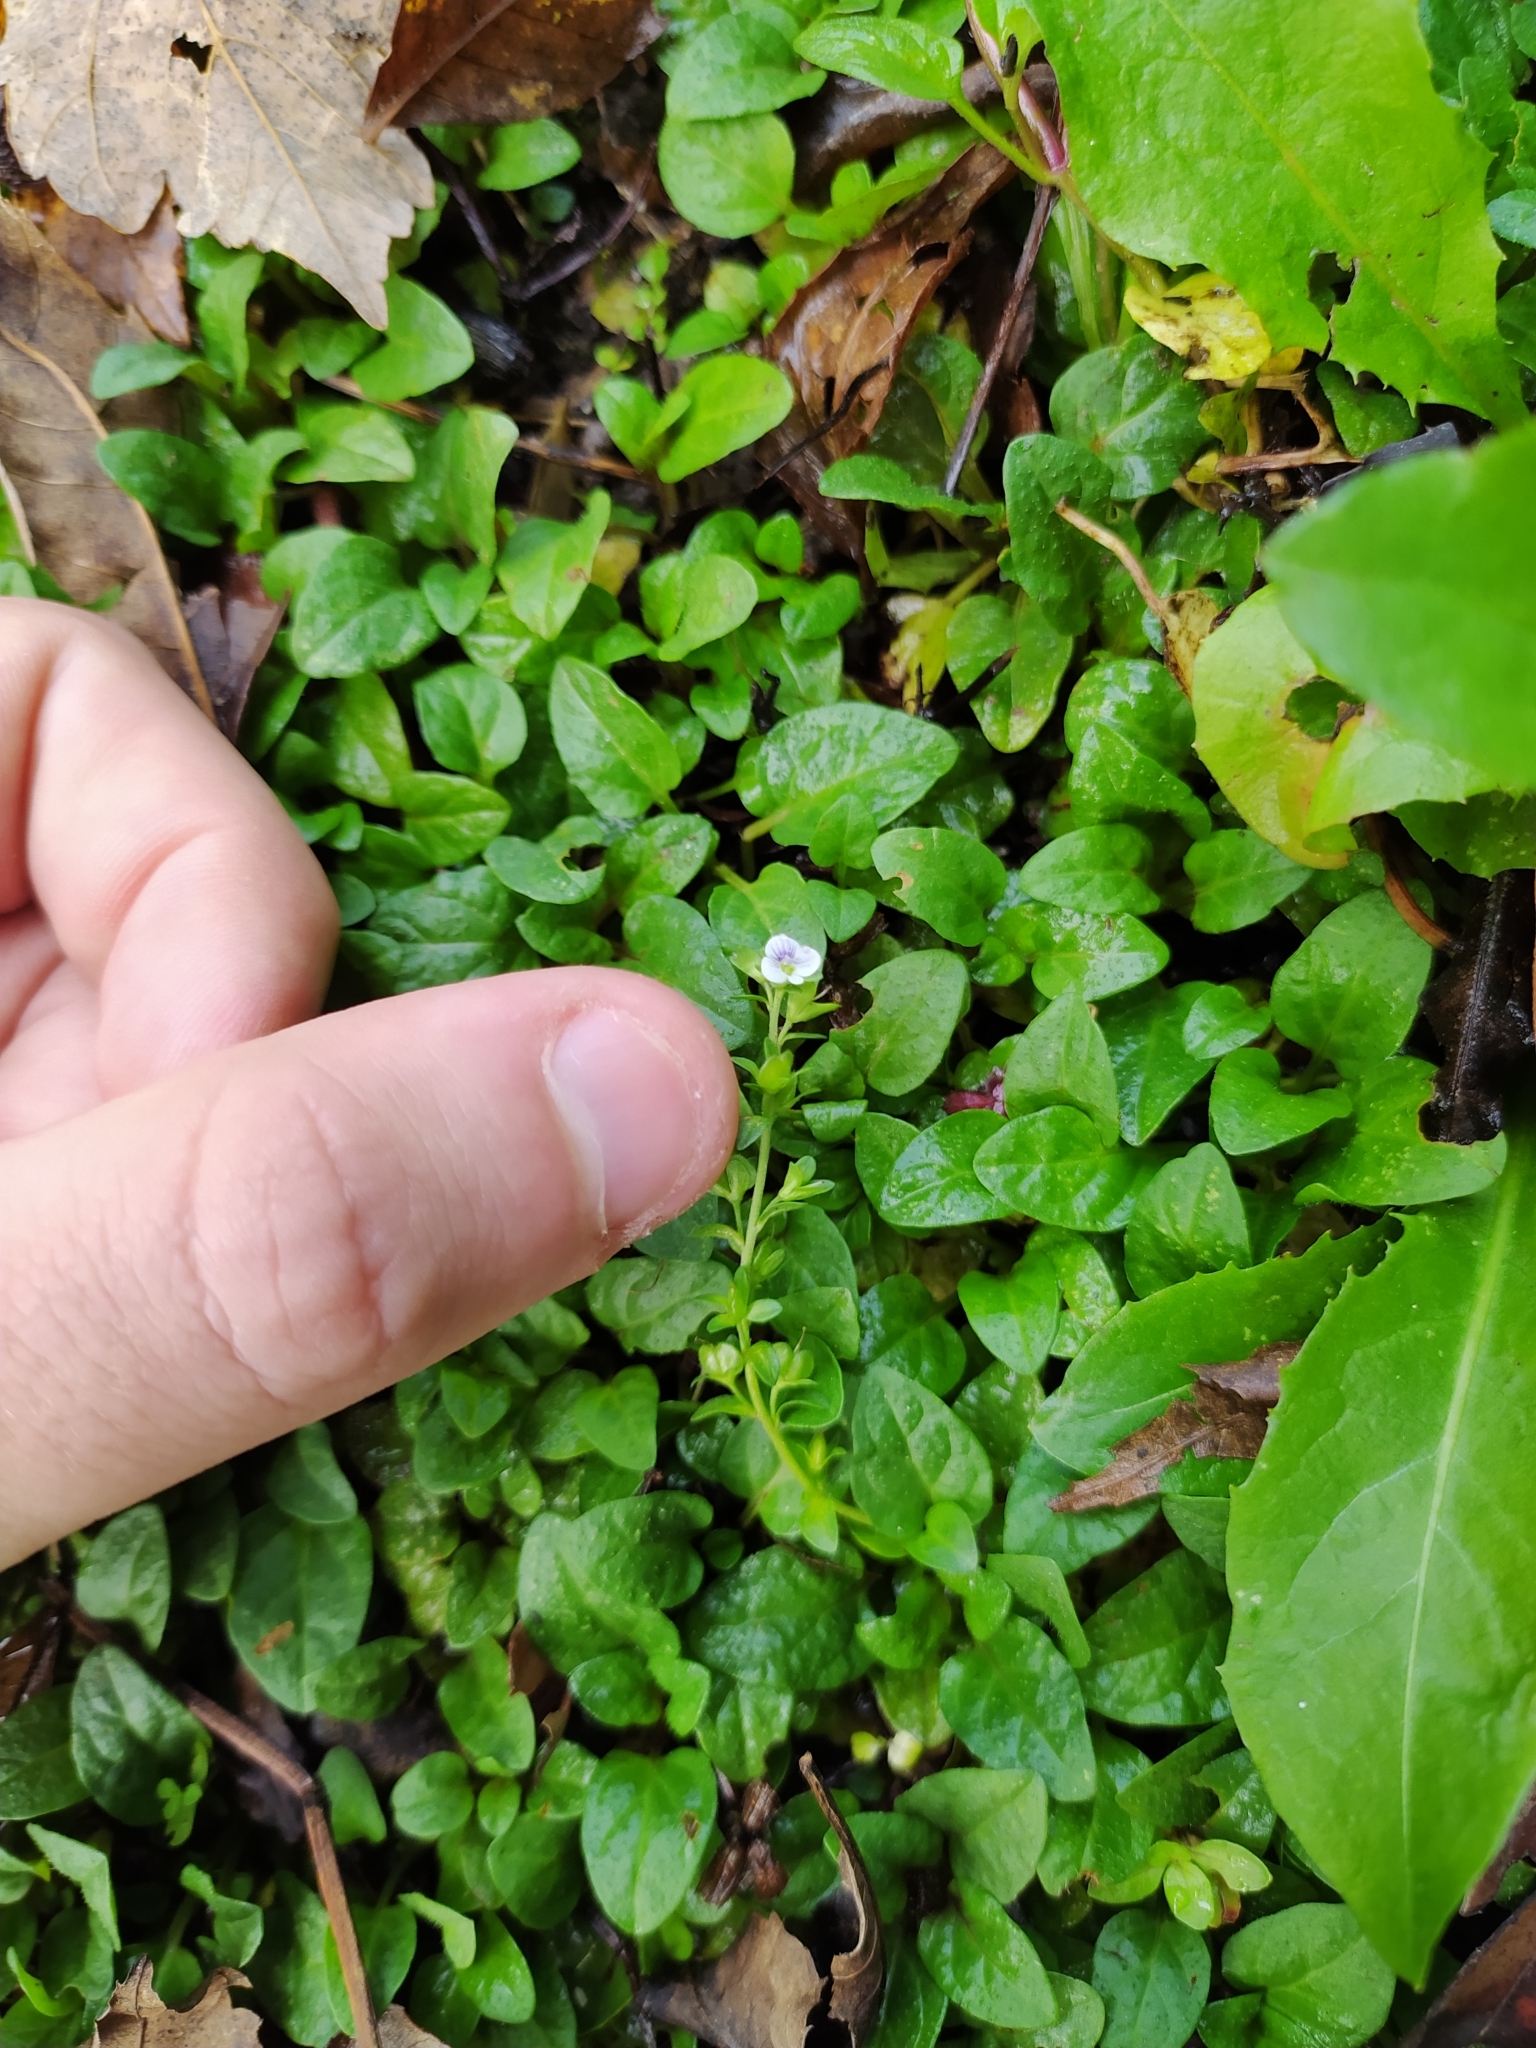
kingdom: Plantae
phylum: Tracheophyta
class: Magnoliopsida
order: Lamiales
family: Plantaginaceae
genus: Veronica
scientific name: Veronica serpyllifolia
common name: Thyme-leaved speedwell
